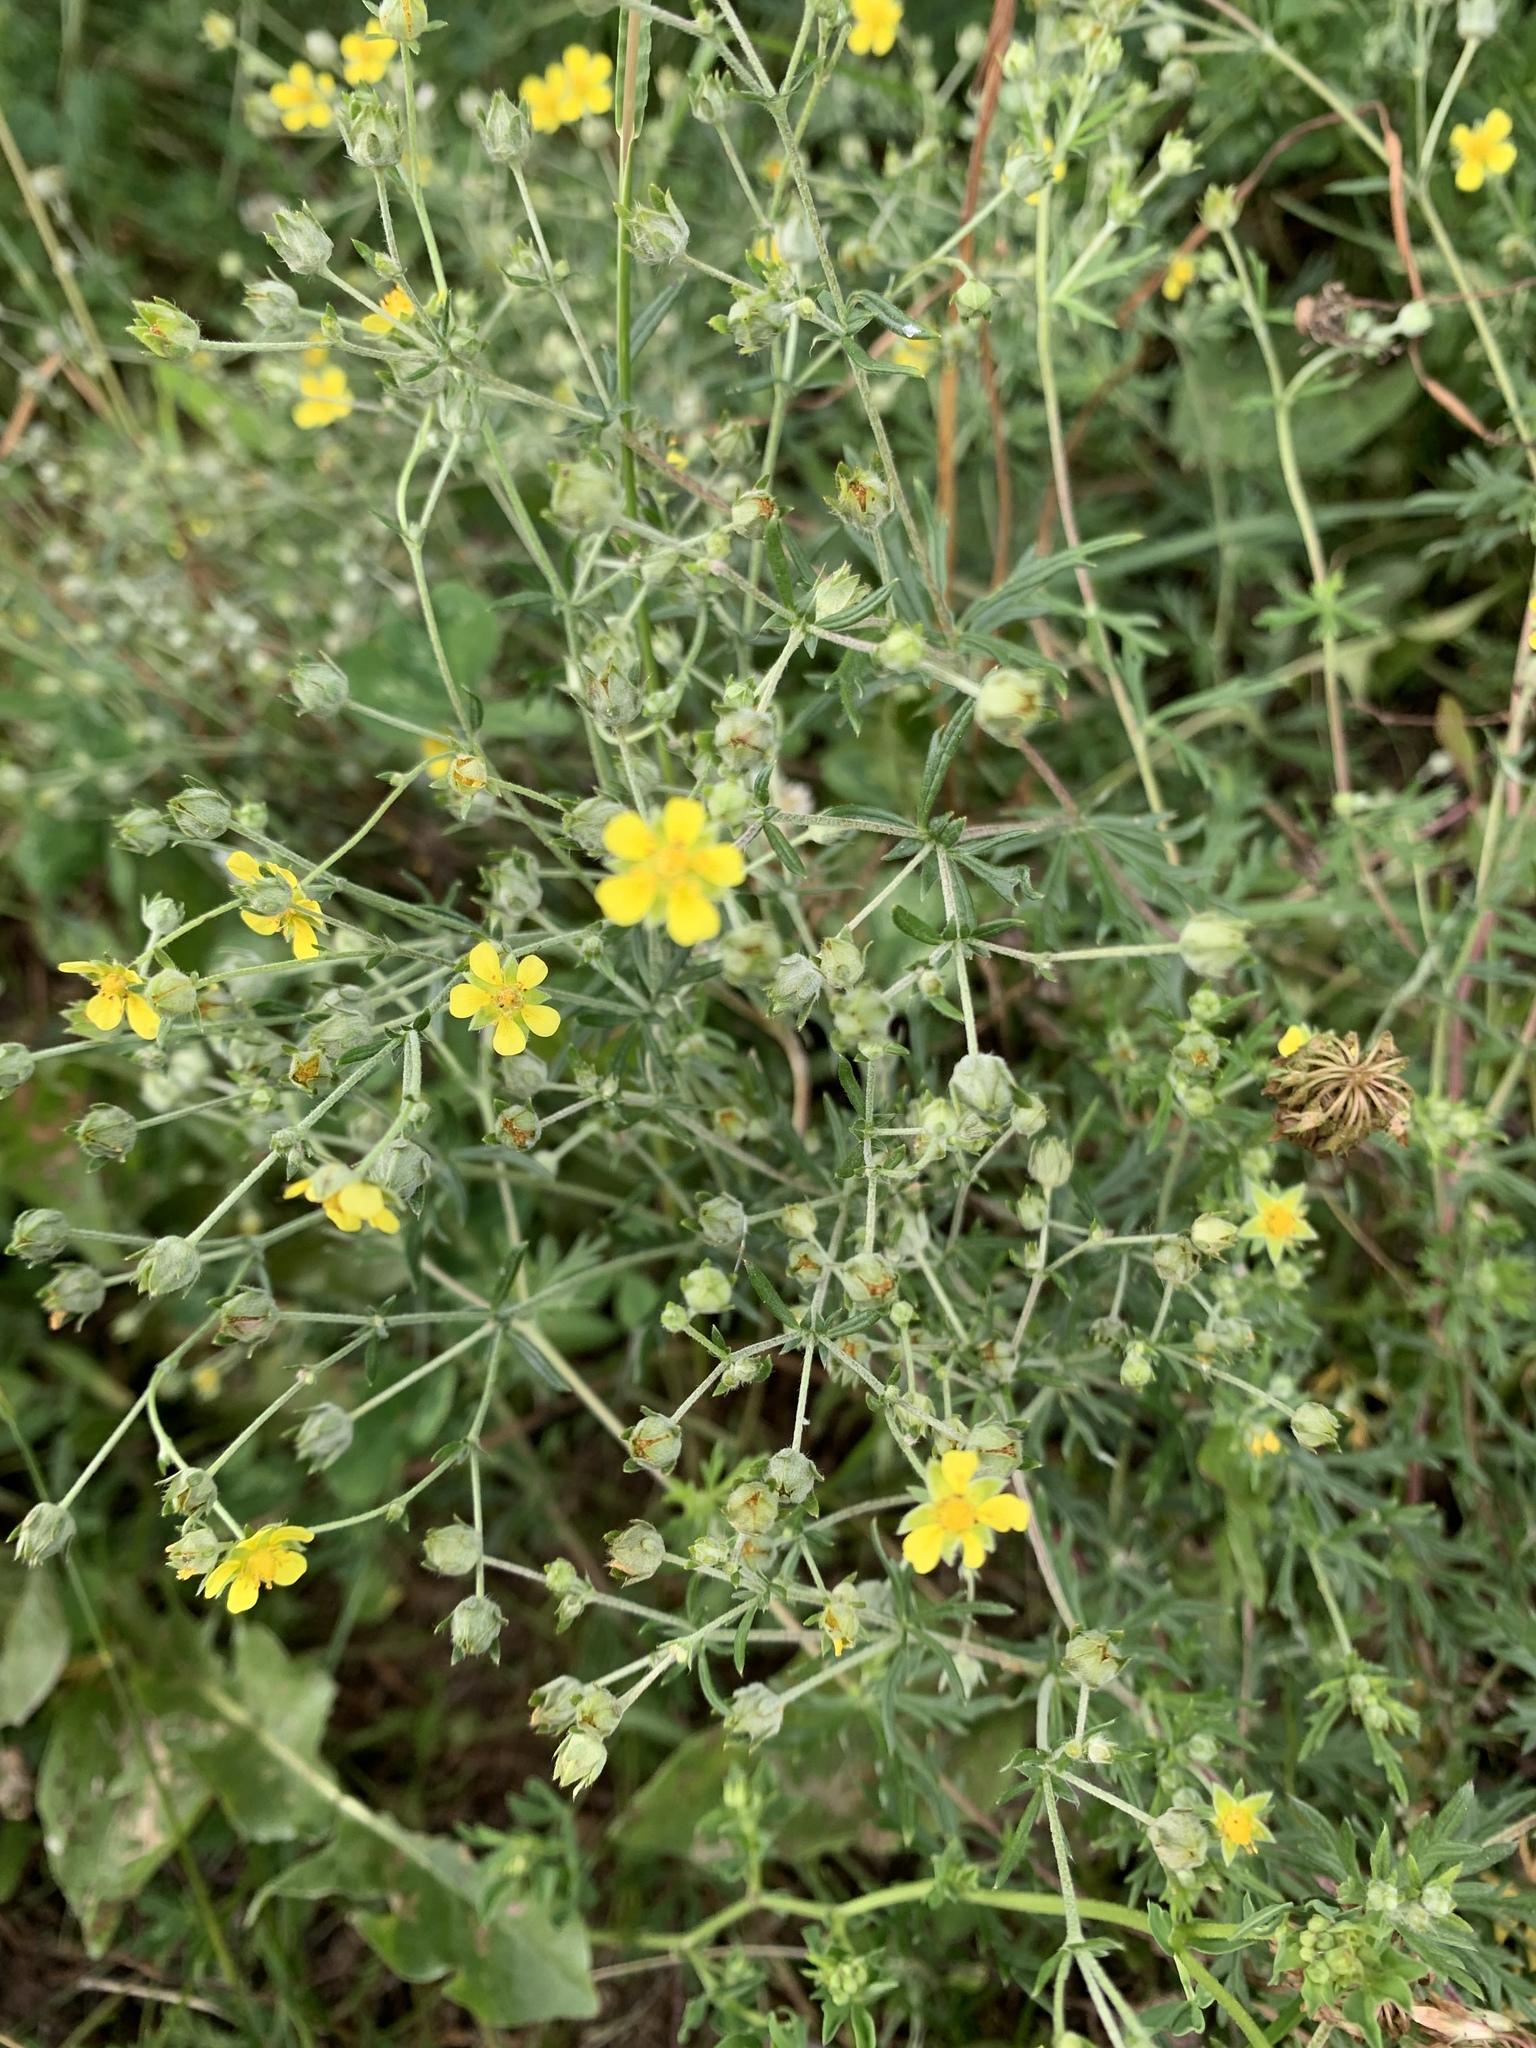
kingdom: Plantae
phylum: Tracheophyta
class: Magnoliopsida
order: Rosales
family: Rosaceae
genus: Potentilla
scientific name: Potentilla argentea
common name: Hoary cinquefoil
